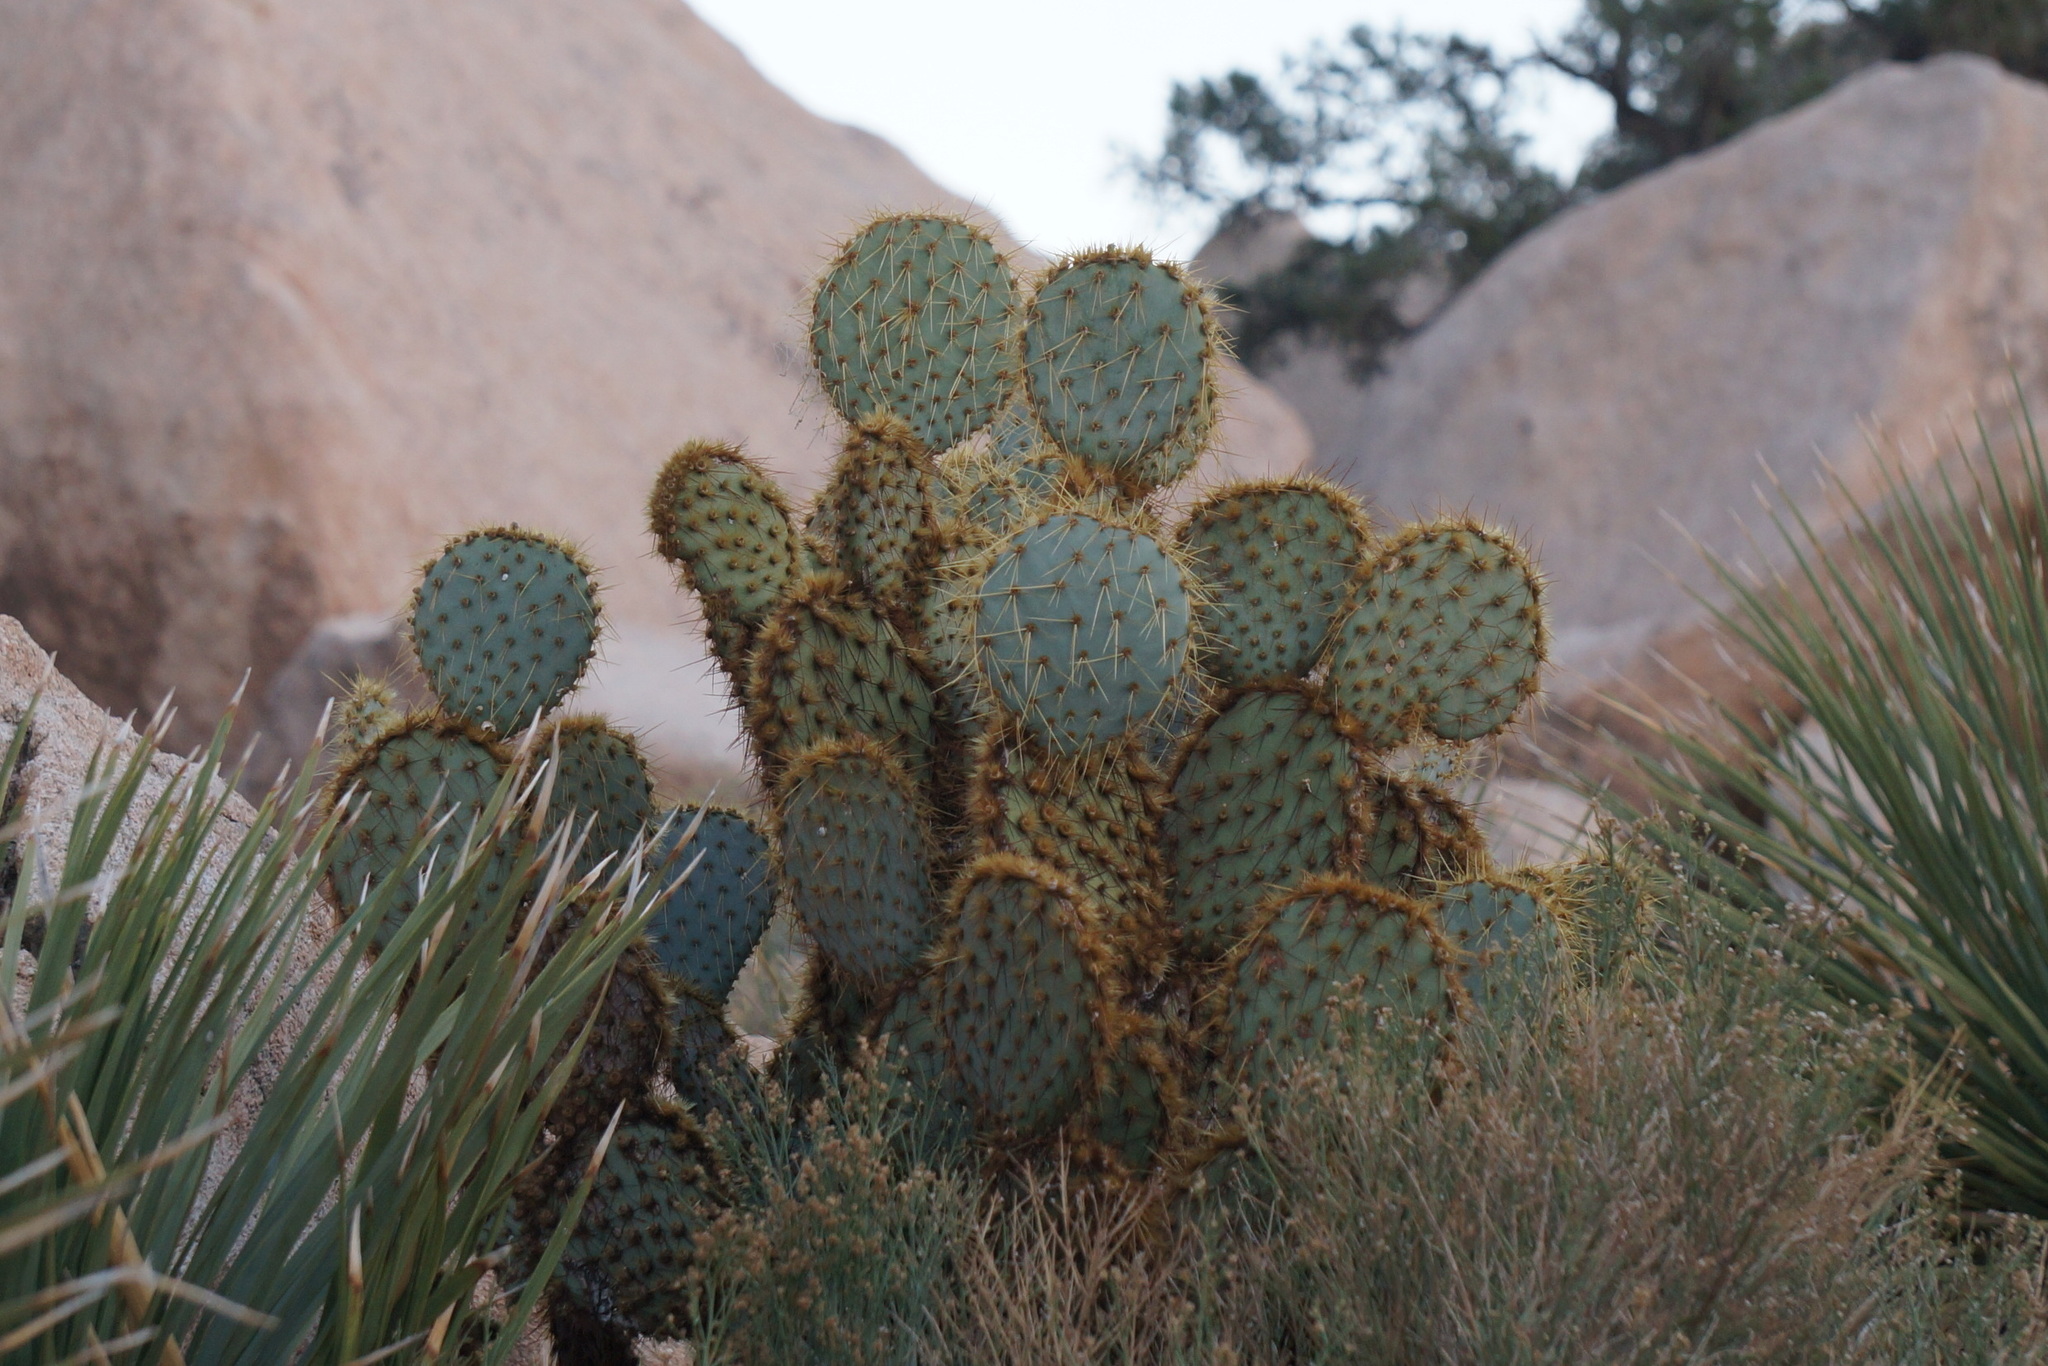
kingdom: Plantae
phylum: Tracheophyta
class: Magnoliopsida
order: Caryophyllales
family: Cactaceae
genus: Opuntia
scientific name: Opuntia chlorotica
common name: Dollar-joint prickly-pear
